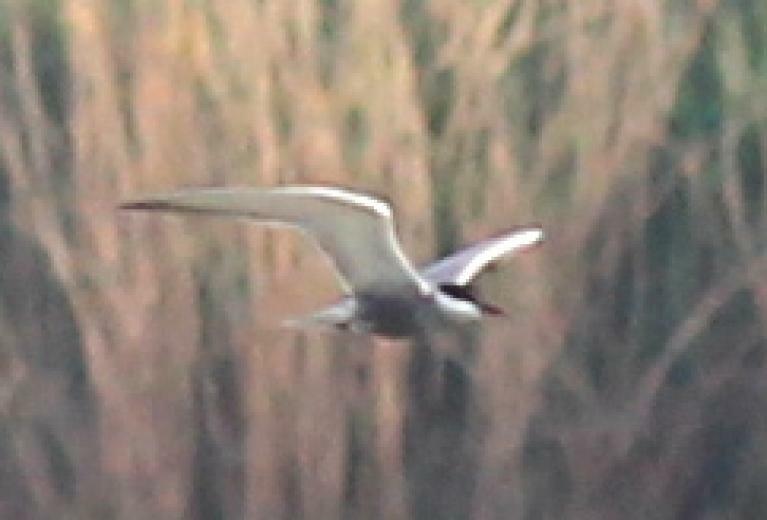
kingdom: Animalia
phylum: Chordata
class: Aves
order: Charadriiformes
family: Laridae
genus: Chlidonias
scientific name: Chlidonias hybrida
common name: Whiskered tern
